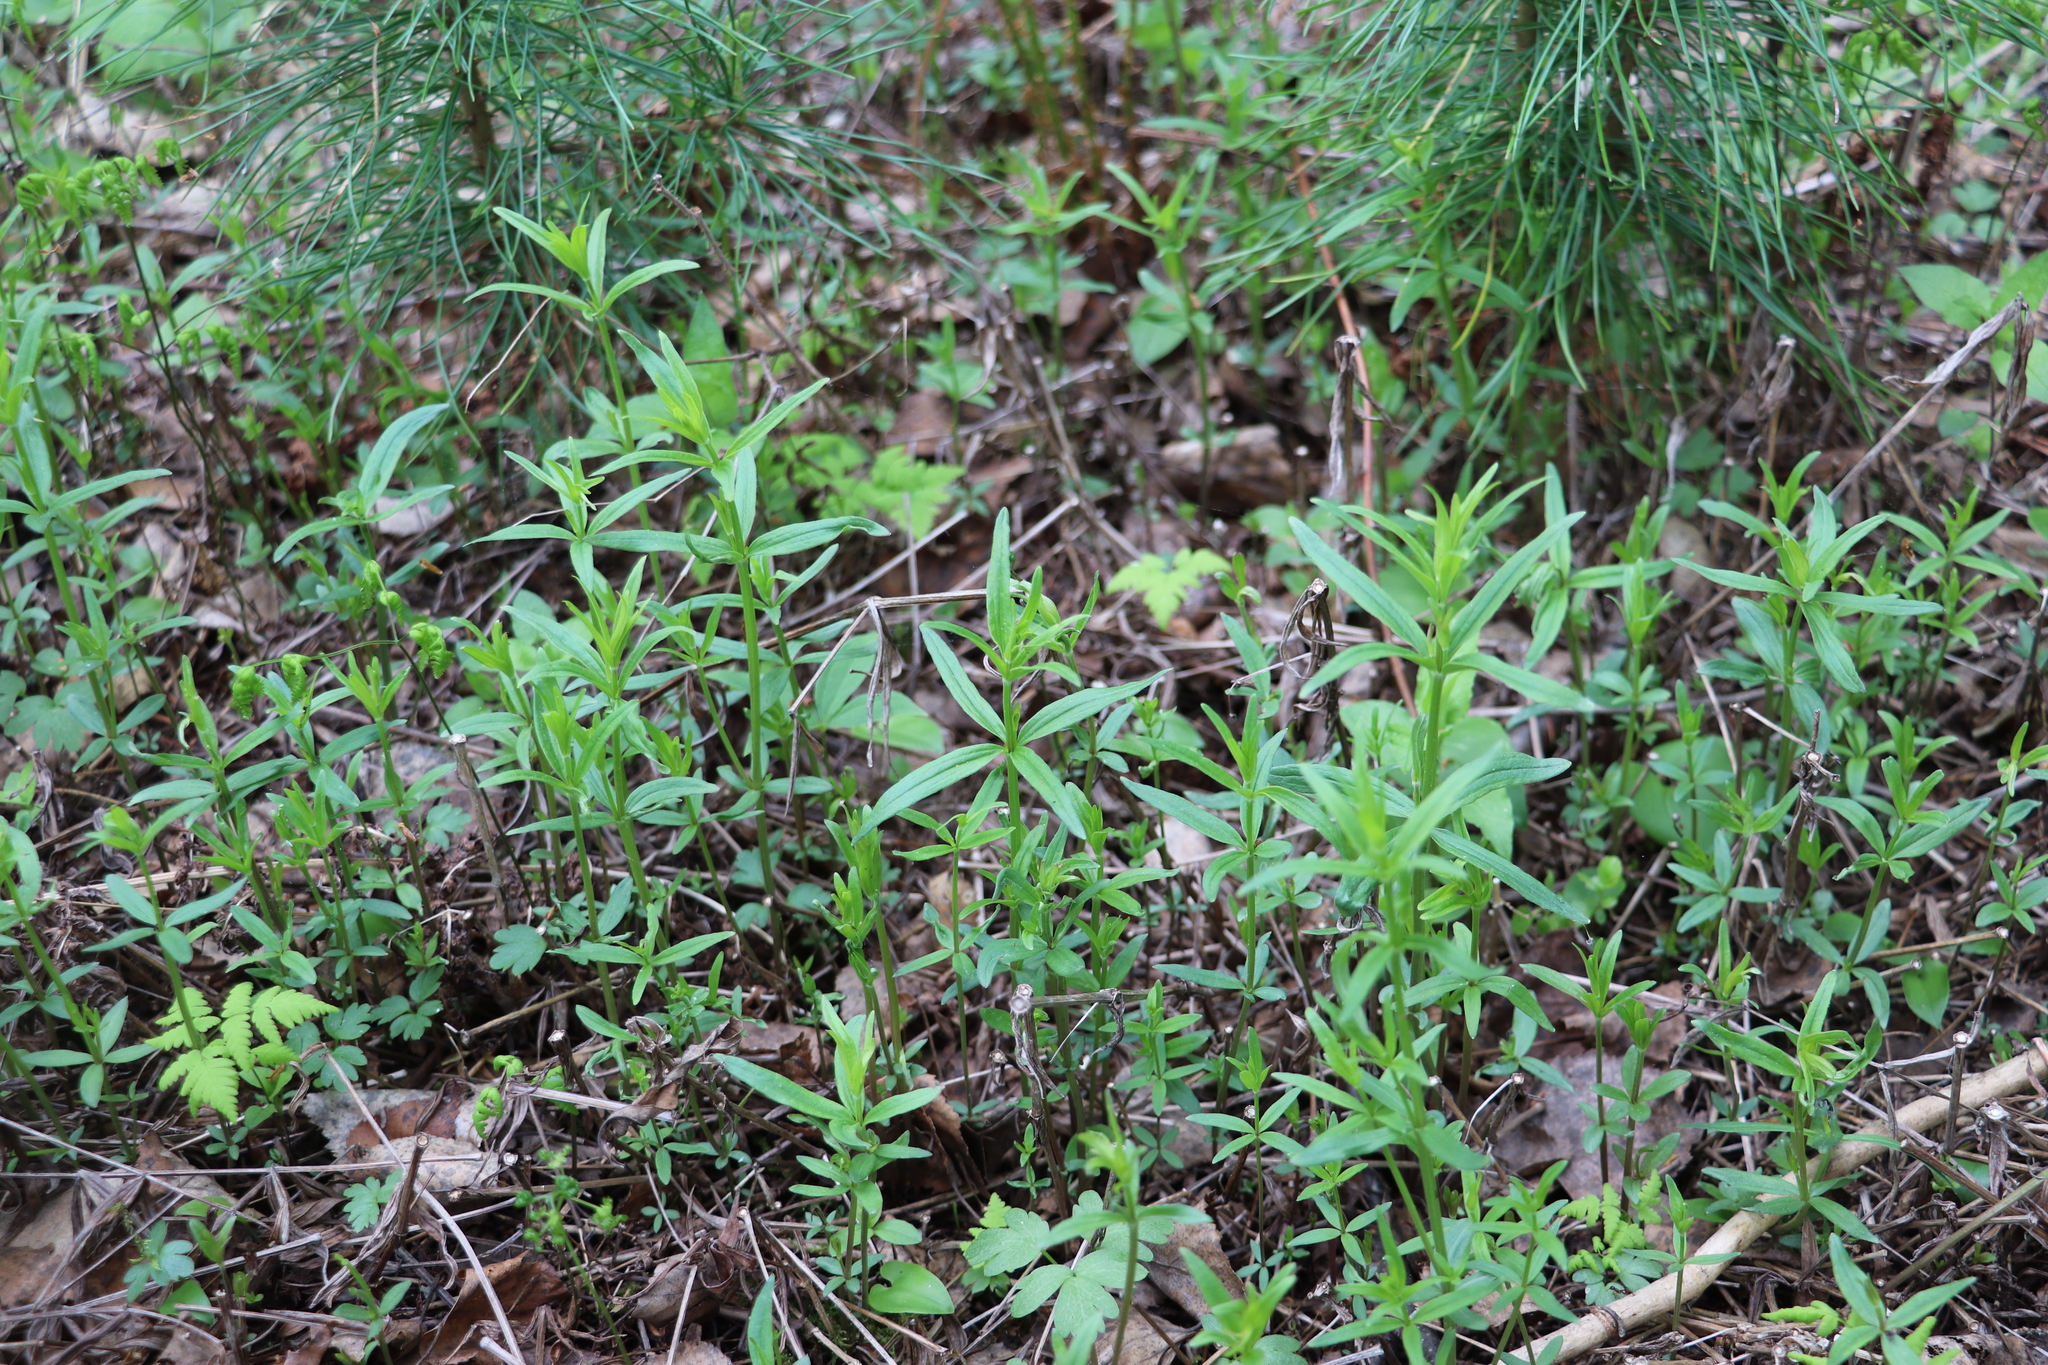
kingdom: Plantae
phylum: Tracheophyta
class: Magnoliopsida
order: Gentianales
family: Rubiaceae
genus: Galium
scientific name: Galium boreale
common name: Northern bedstraw
